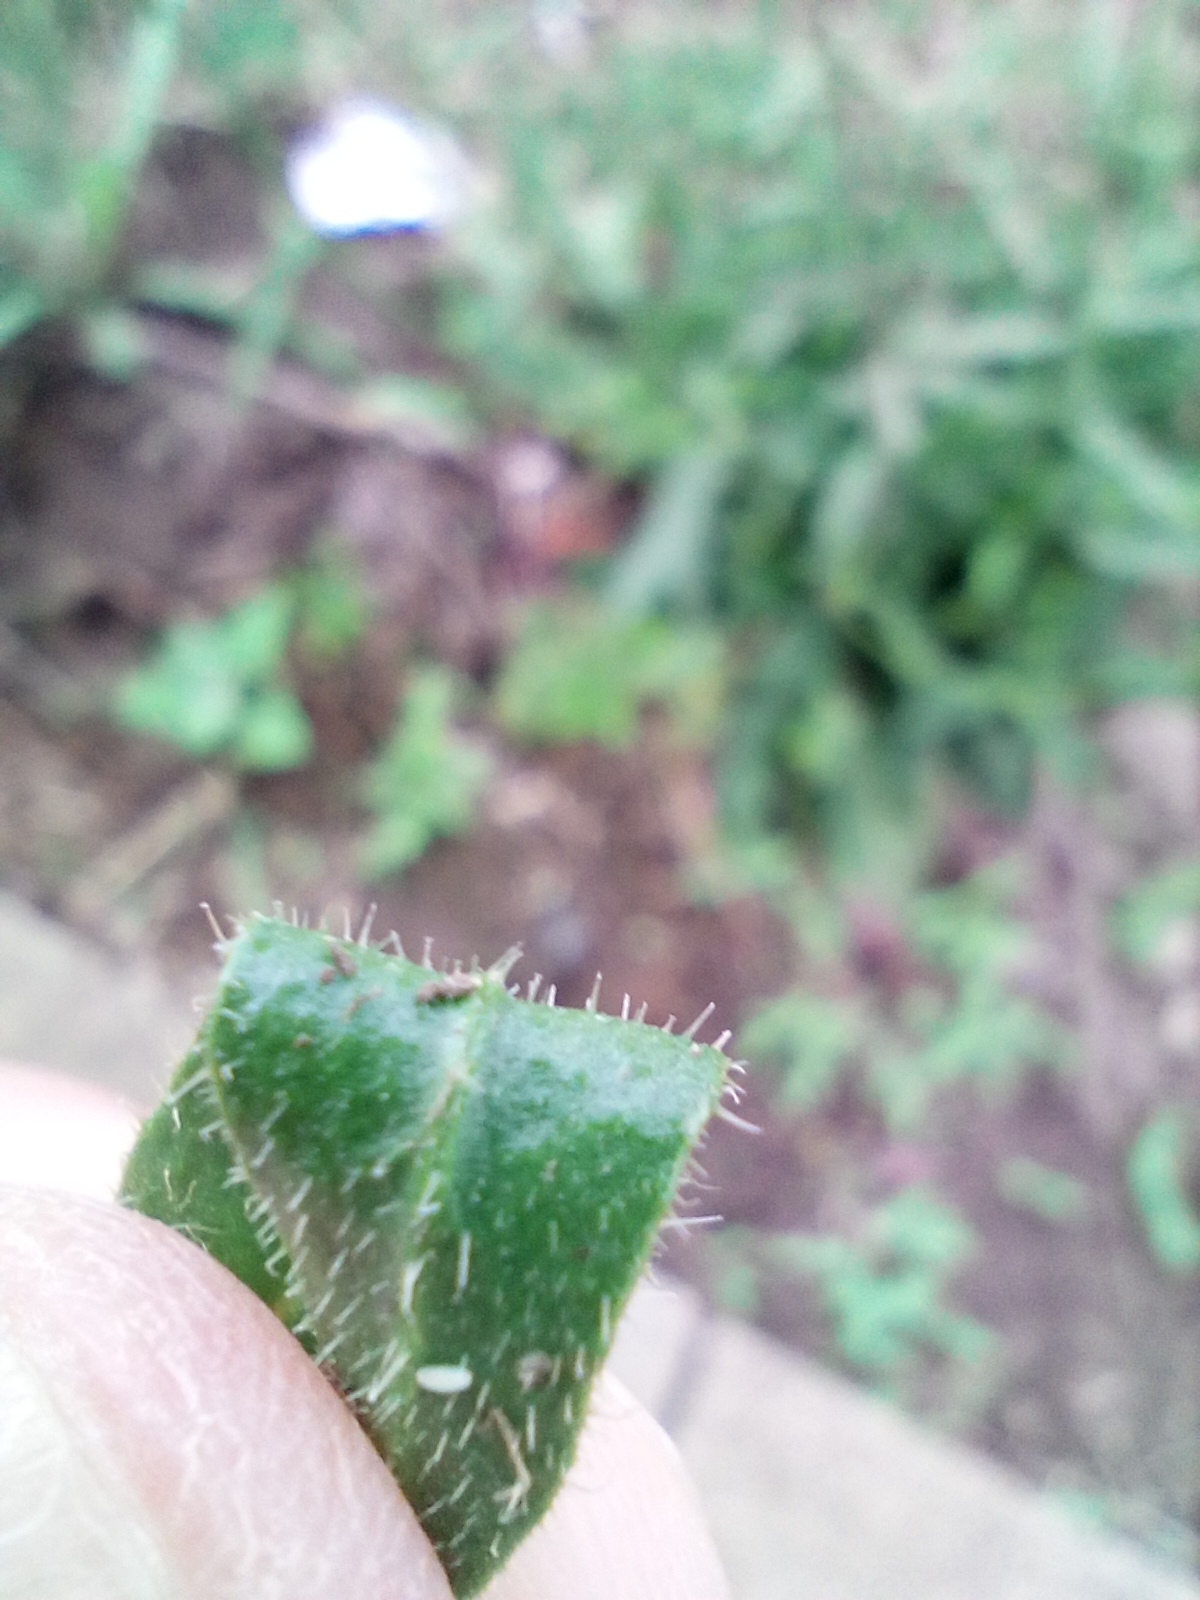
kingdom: Plantae
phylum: Tracheophyta
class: Magnoliopsida
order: Asterales
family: Asteraceae
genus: Picris
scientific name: Picris hieracioides
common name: Hawkweed oxtongue
